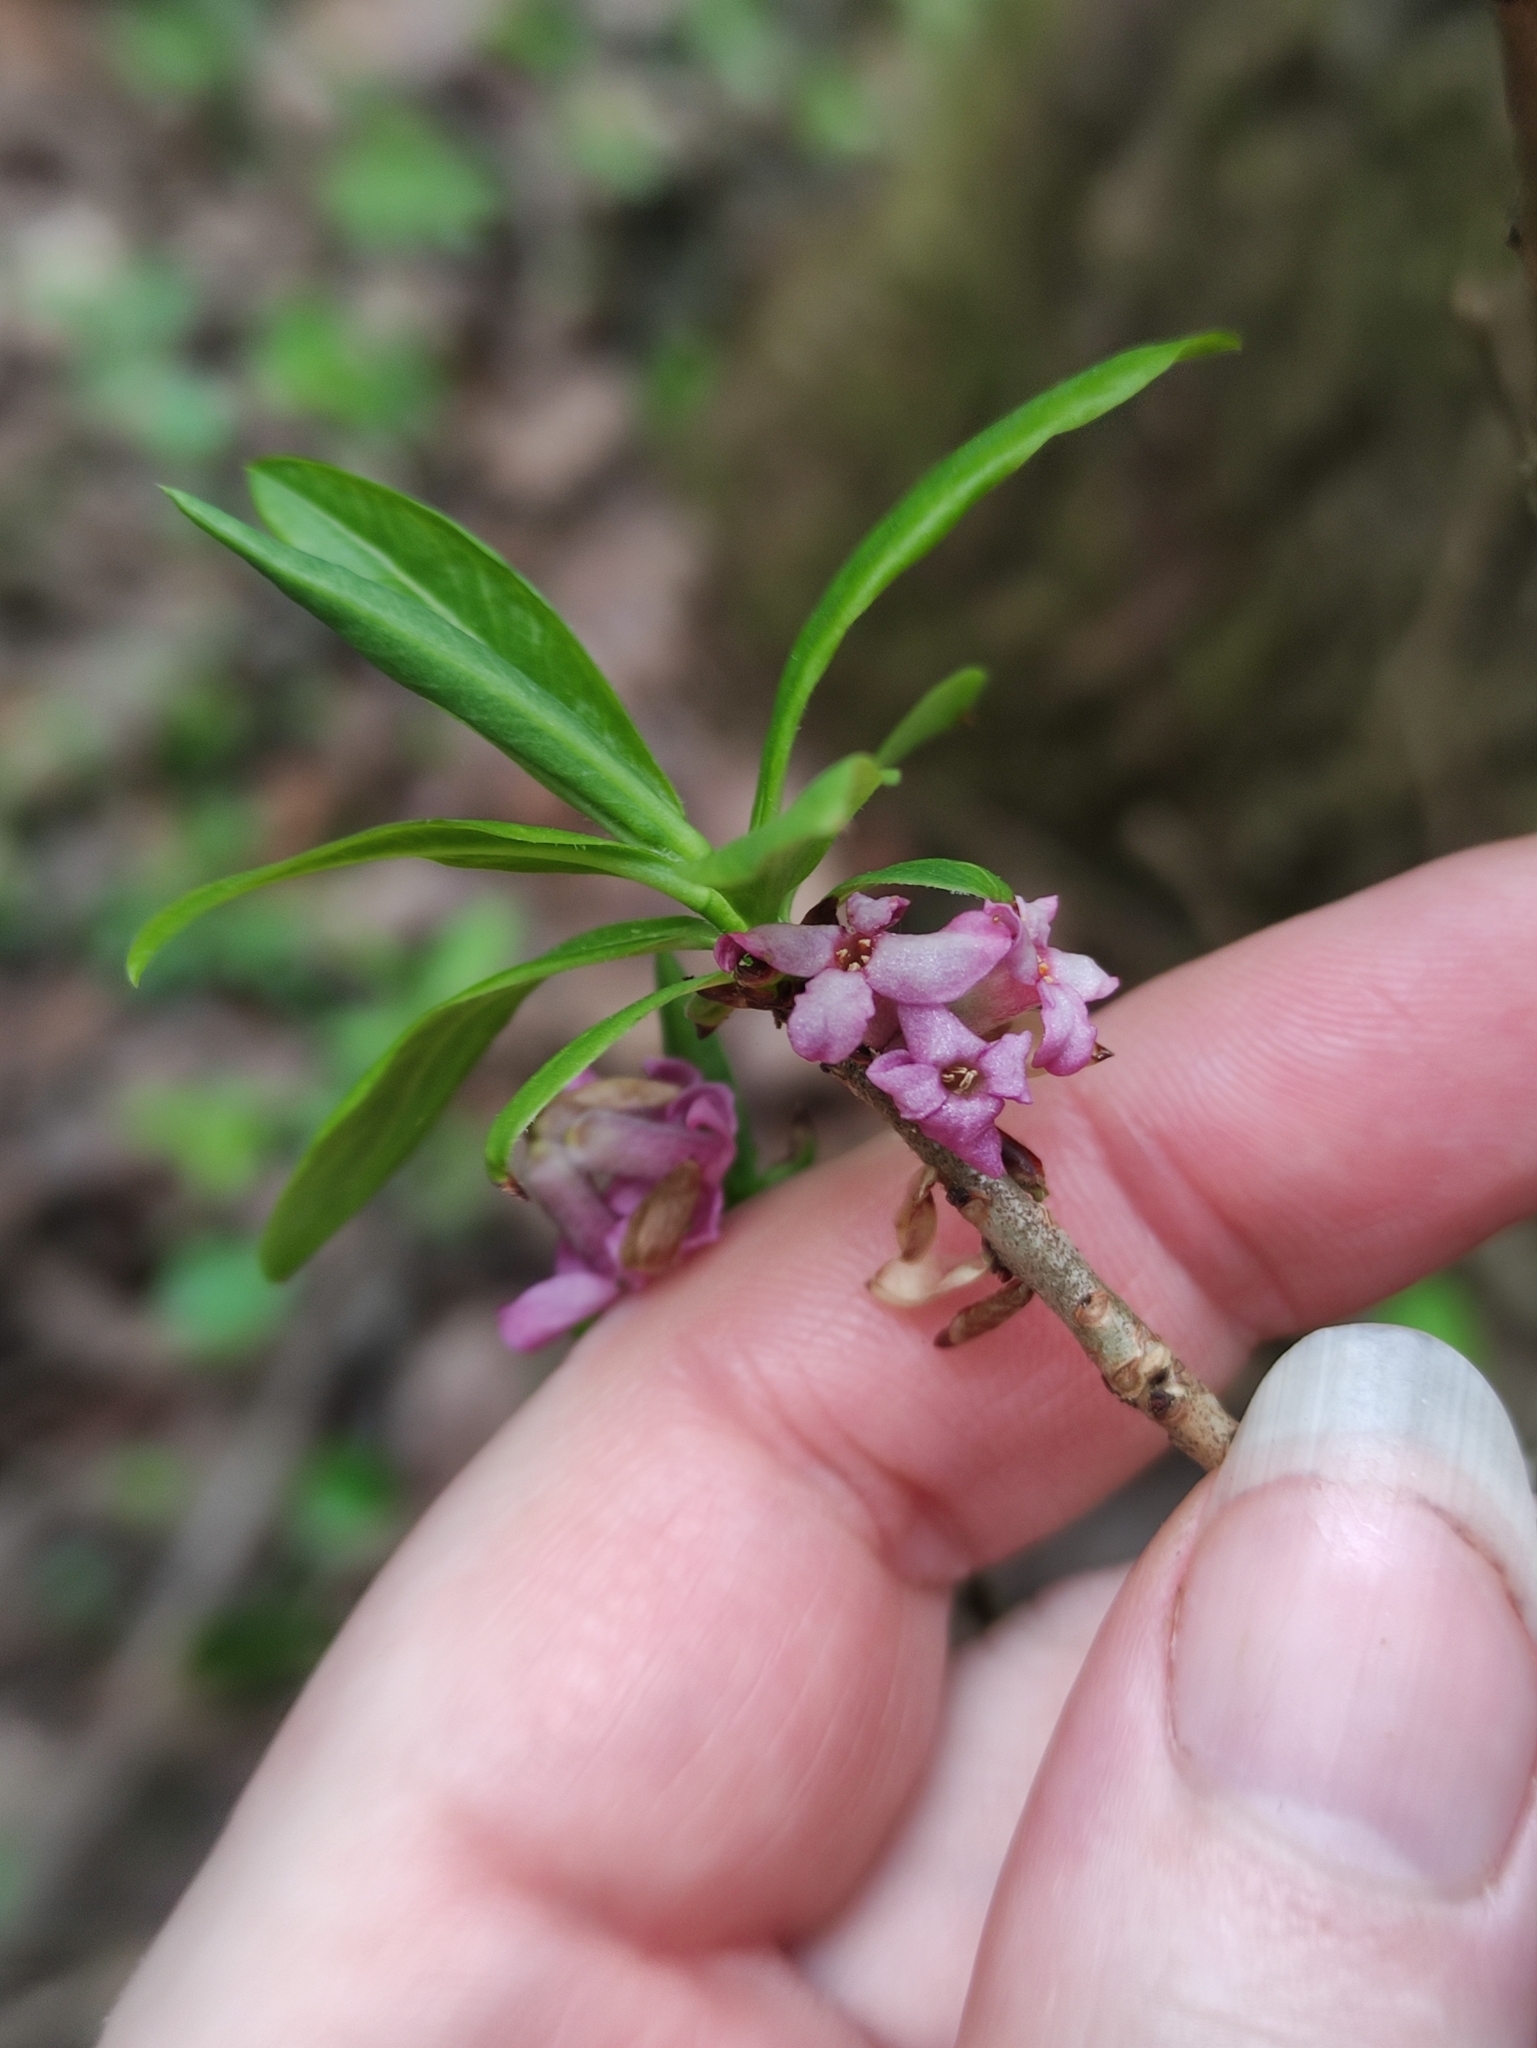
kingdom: Plantae
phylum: Tracheophyta
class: Magnoliopsida
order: Malvales
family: Thymelaeaceae
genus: Daphne
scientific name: Daphne mezereum
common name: Mezereon
